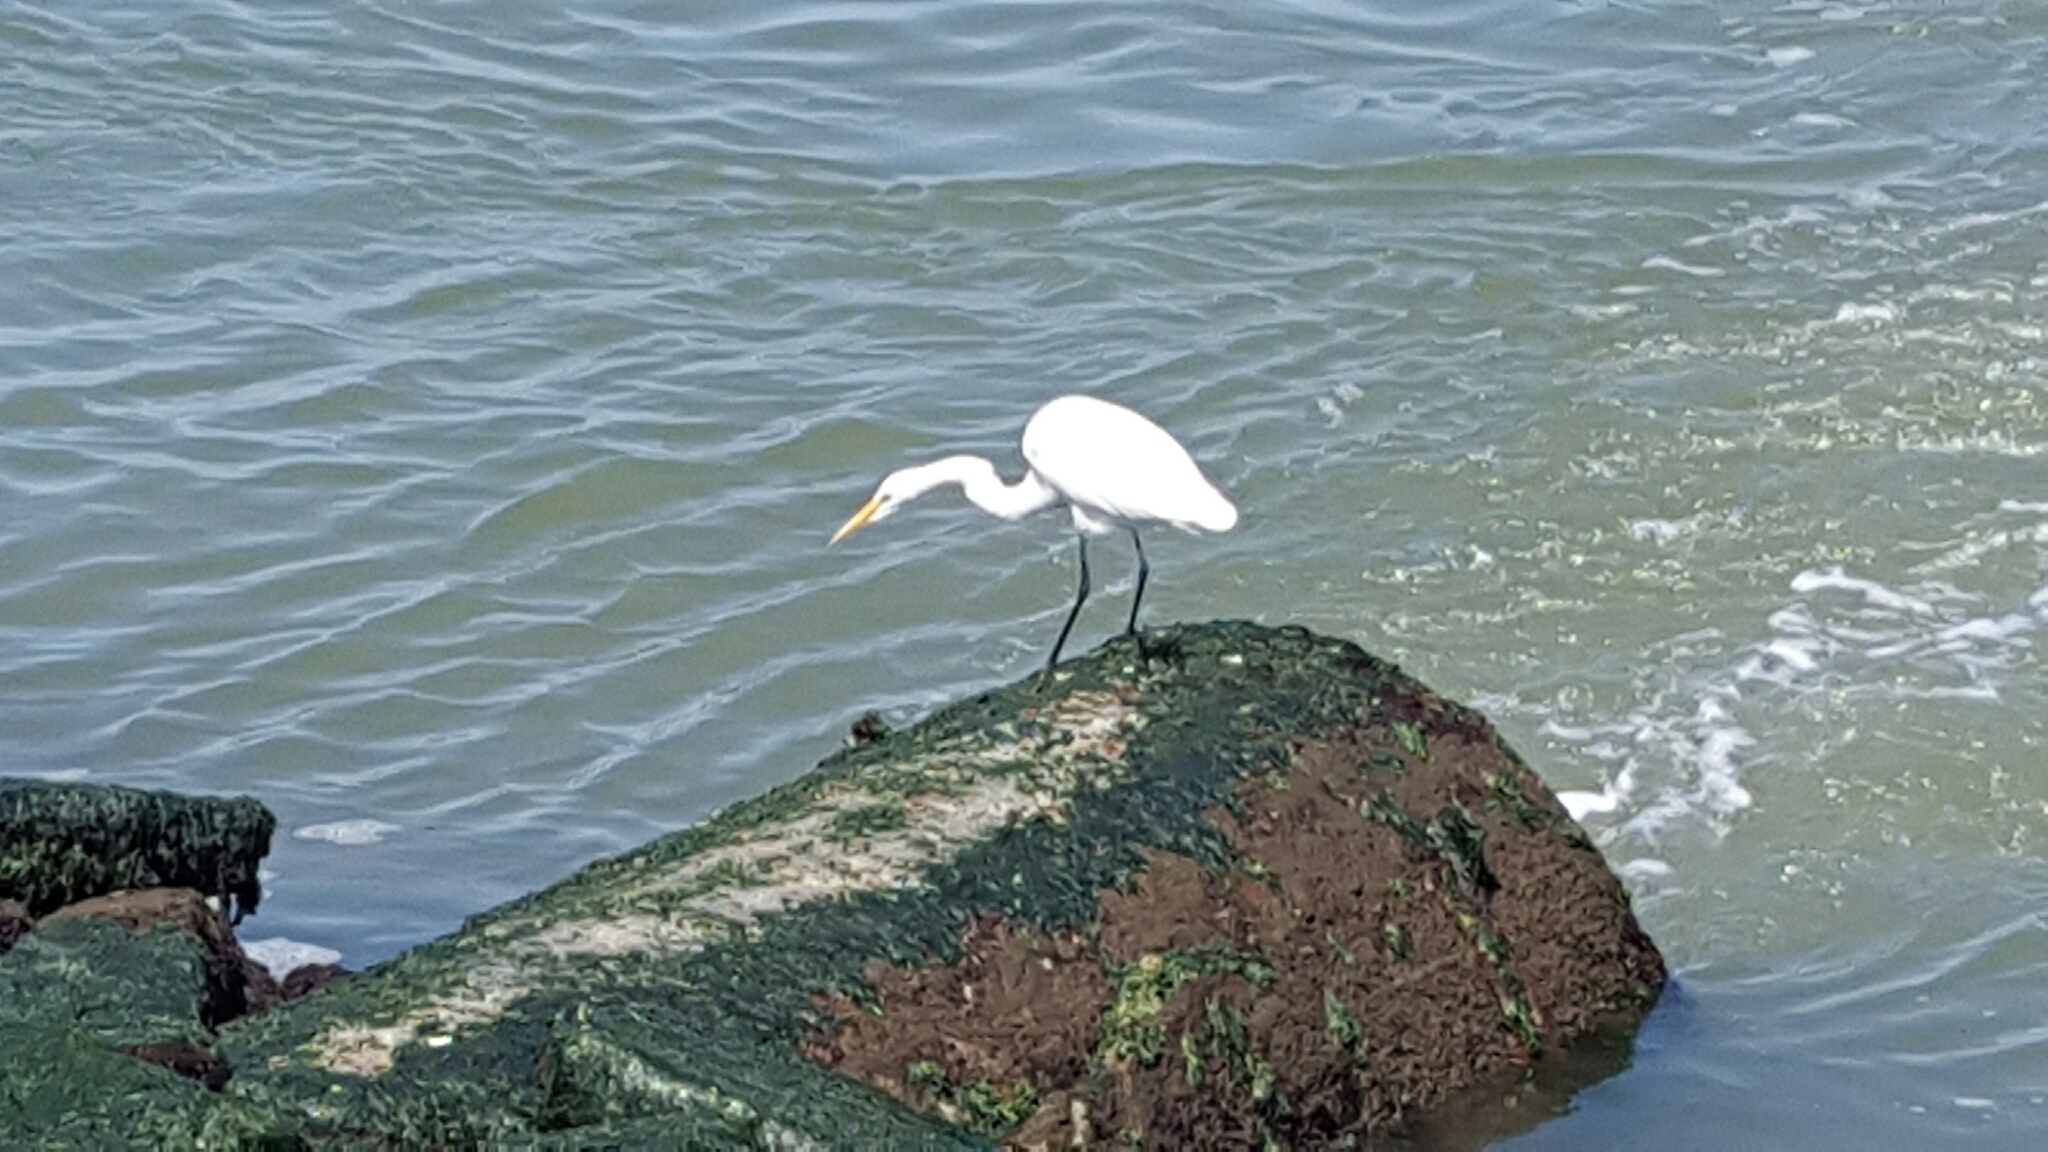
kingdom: Animalia
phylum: Chordata
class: Aves
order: Pelecaniformes
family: Ardeidae
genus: Ardea
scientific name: Ardea alba
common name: Great egret
